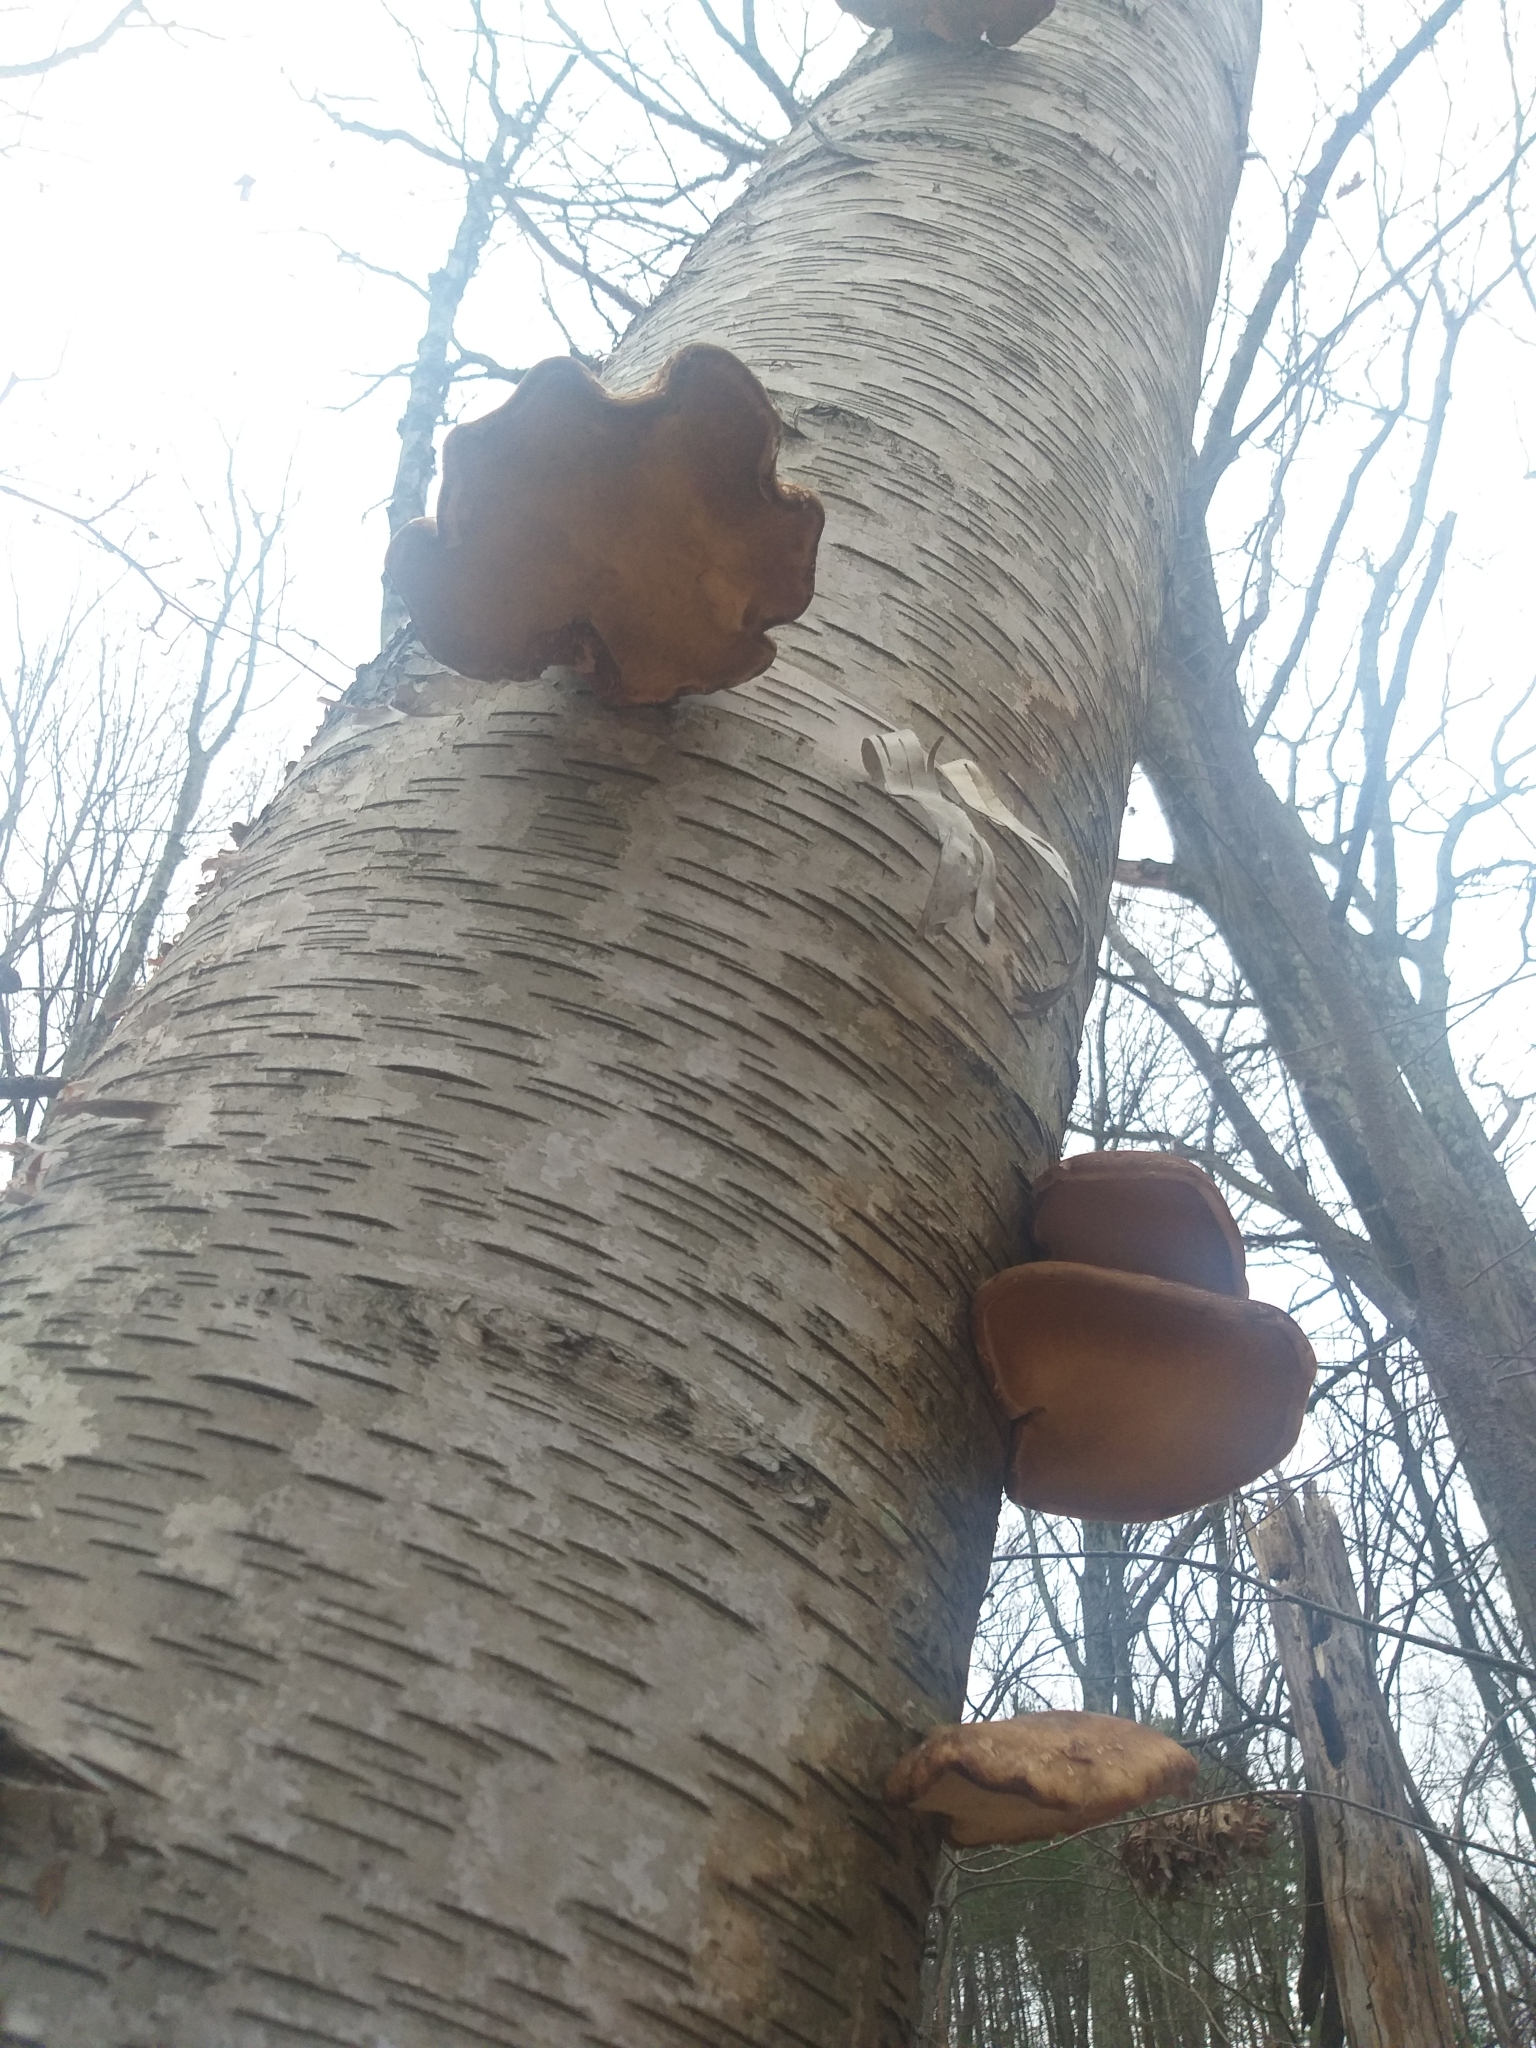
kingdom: Fungi
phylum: Basidiomycota
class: Agaricomycetes
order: Polyporales
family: Fomitopsidaceae
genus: Fomitopsis
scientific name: Fomitopsis betulina
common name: Birch polypore
